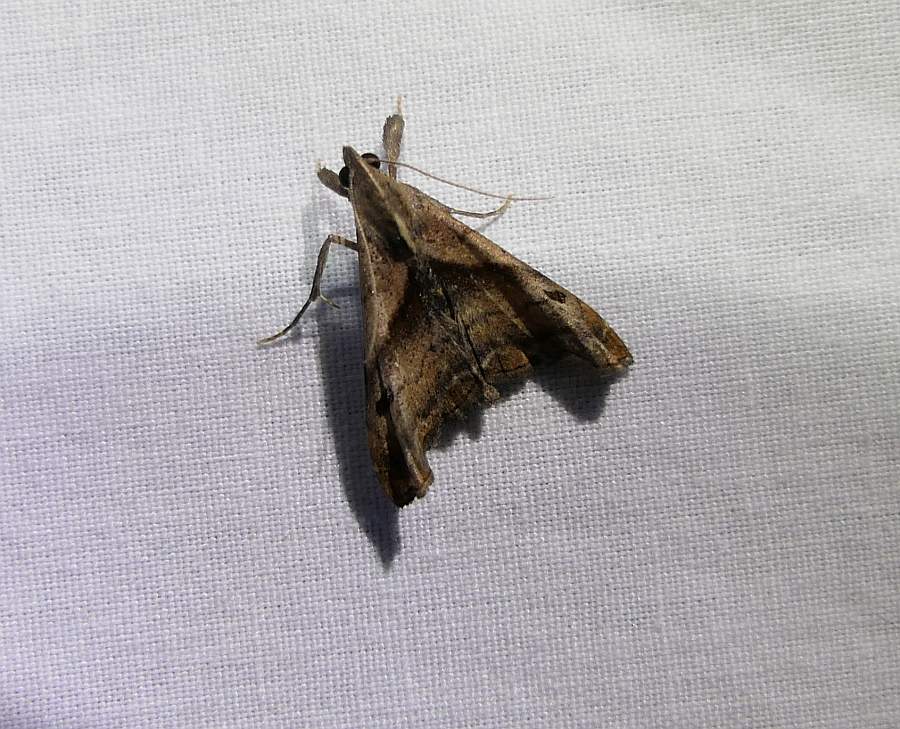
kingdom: Animalia
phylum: Arthropoda
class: Insecta
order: Lepidoptera
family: Erebidae
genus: Palthis
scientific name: Palthis angulalis
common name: Dark-spotted palthis moth
